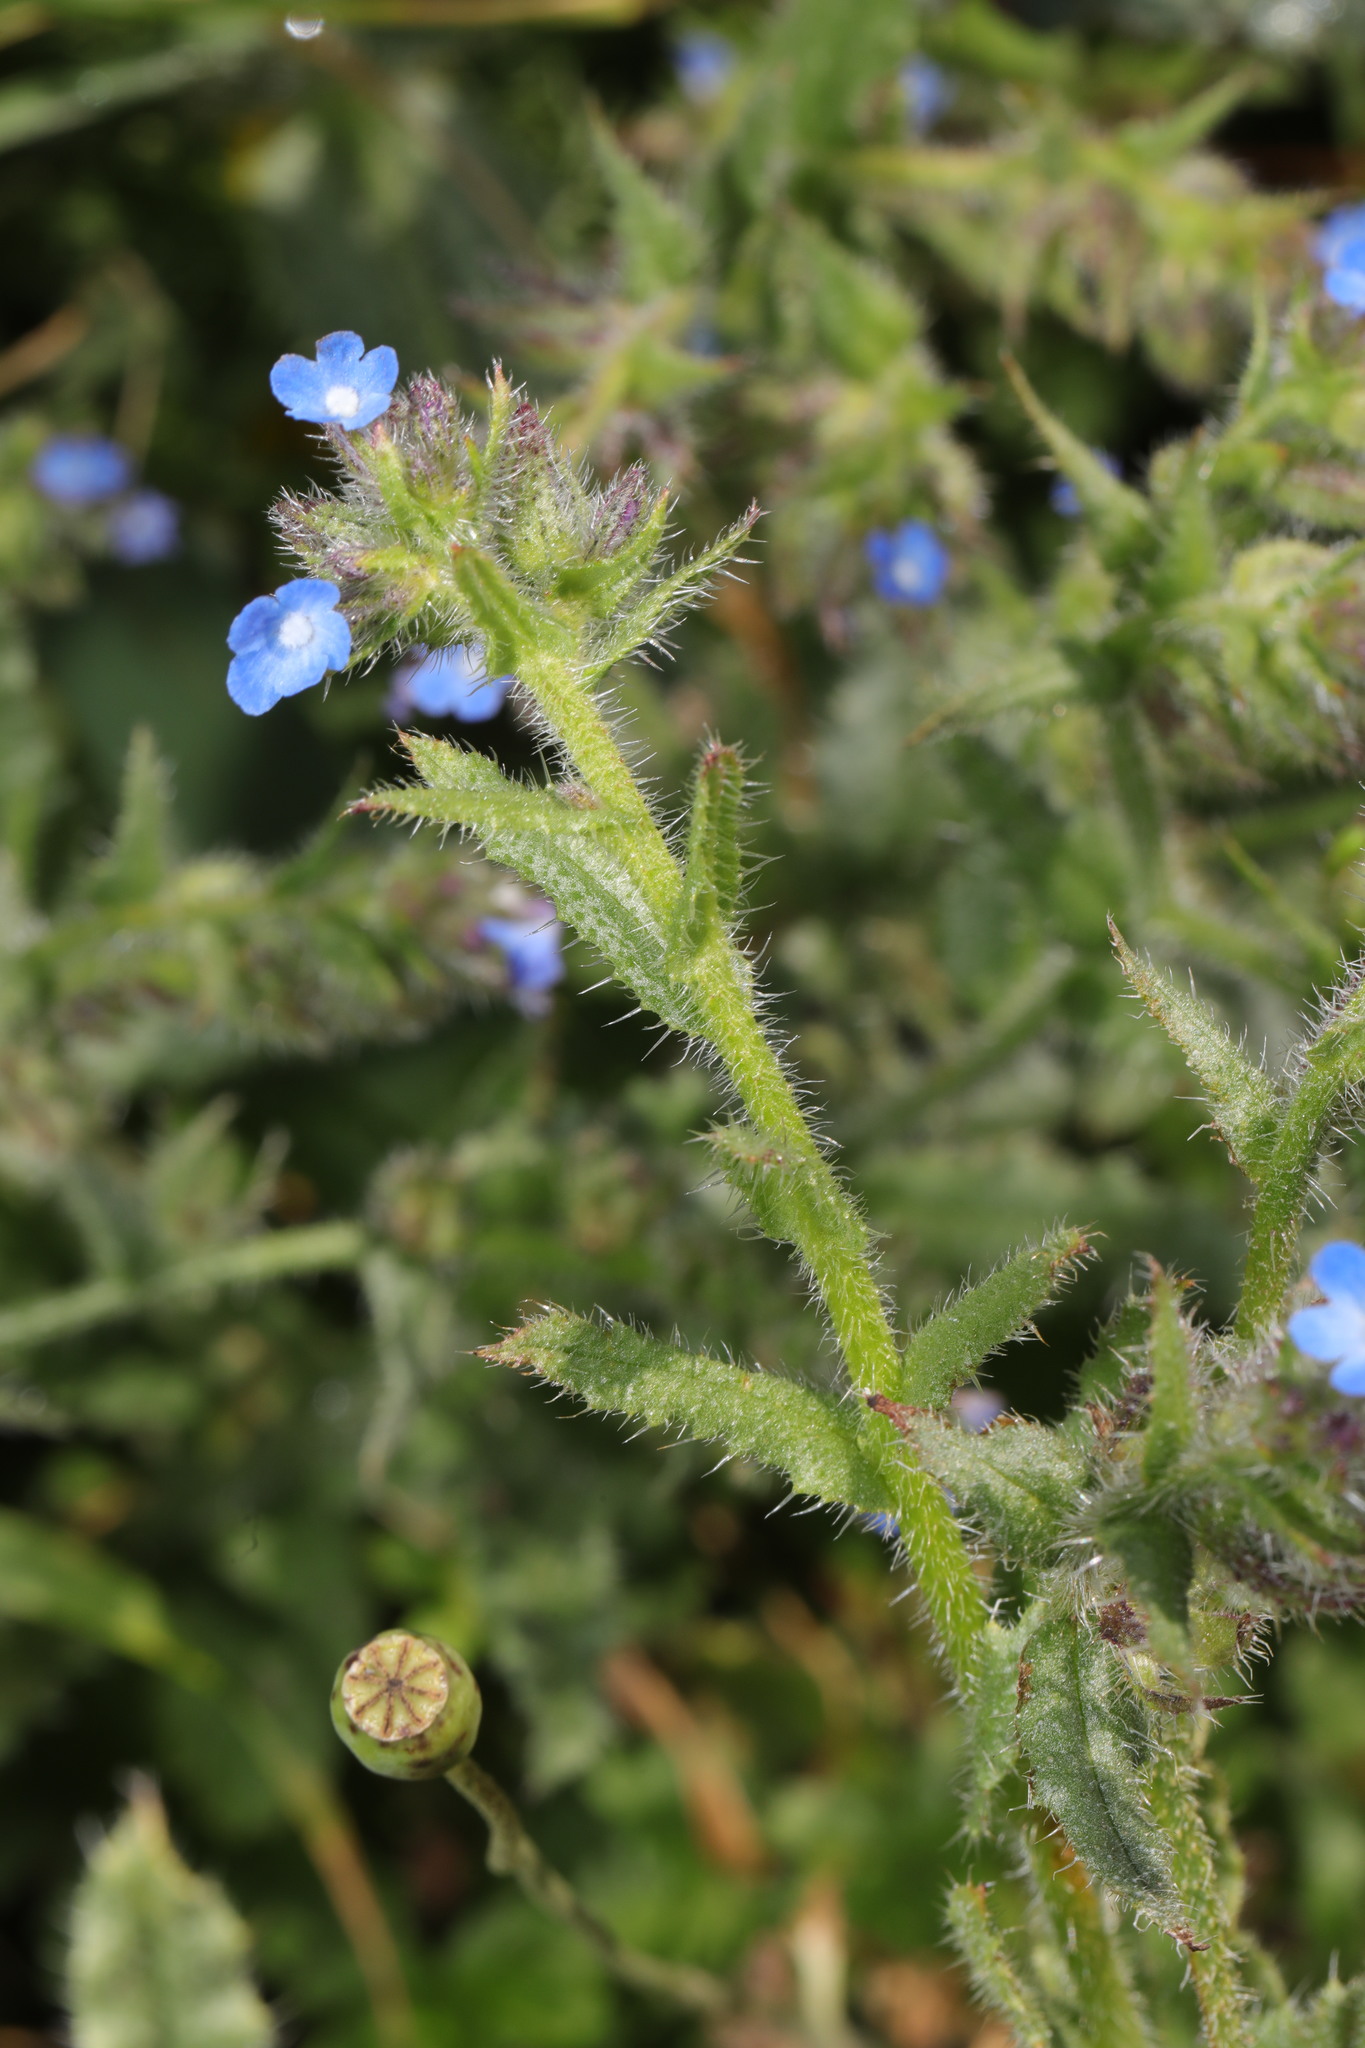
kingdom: Plantae
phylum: Tracheophyta
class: Magnoliopsida
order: Boraginales
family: Boraginaceae
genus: Lycopsis
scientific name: Lycopsis arvensis
